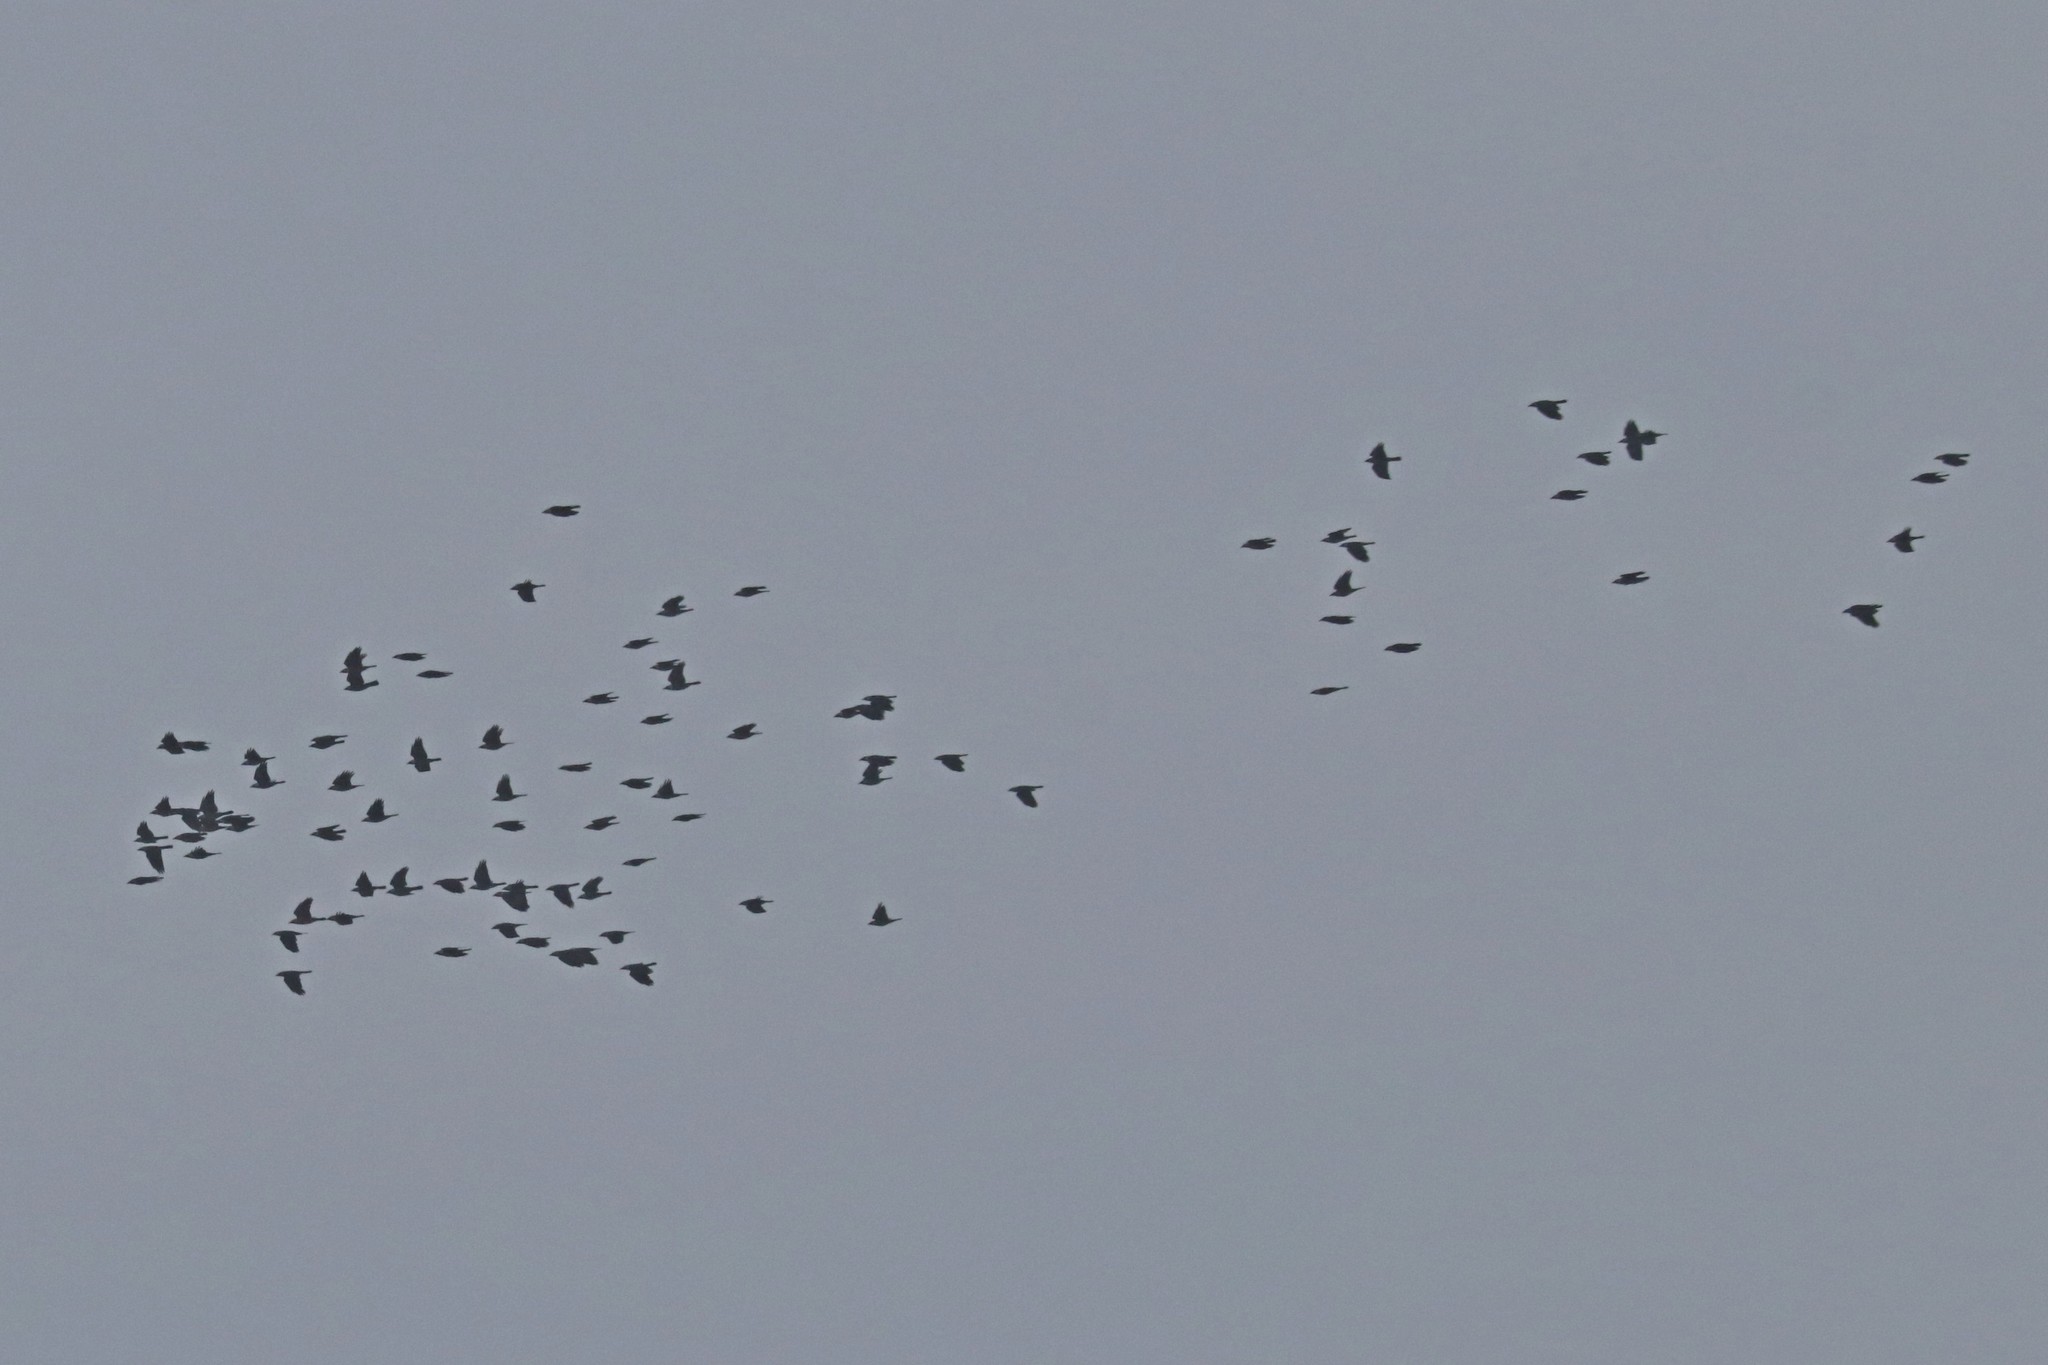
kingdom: Animalia
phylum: Chordata
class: Aves
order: Passeriformes
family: Corvidae
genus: Coloeus
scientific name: Coloeus monedula
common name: Western jackdaw
